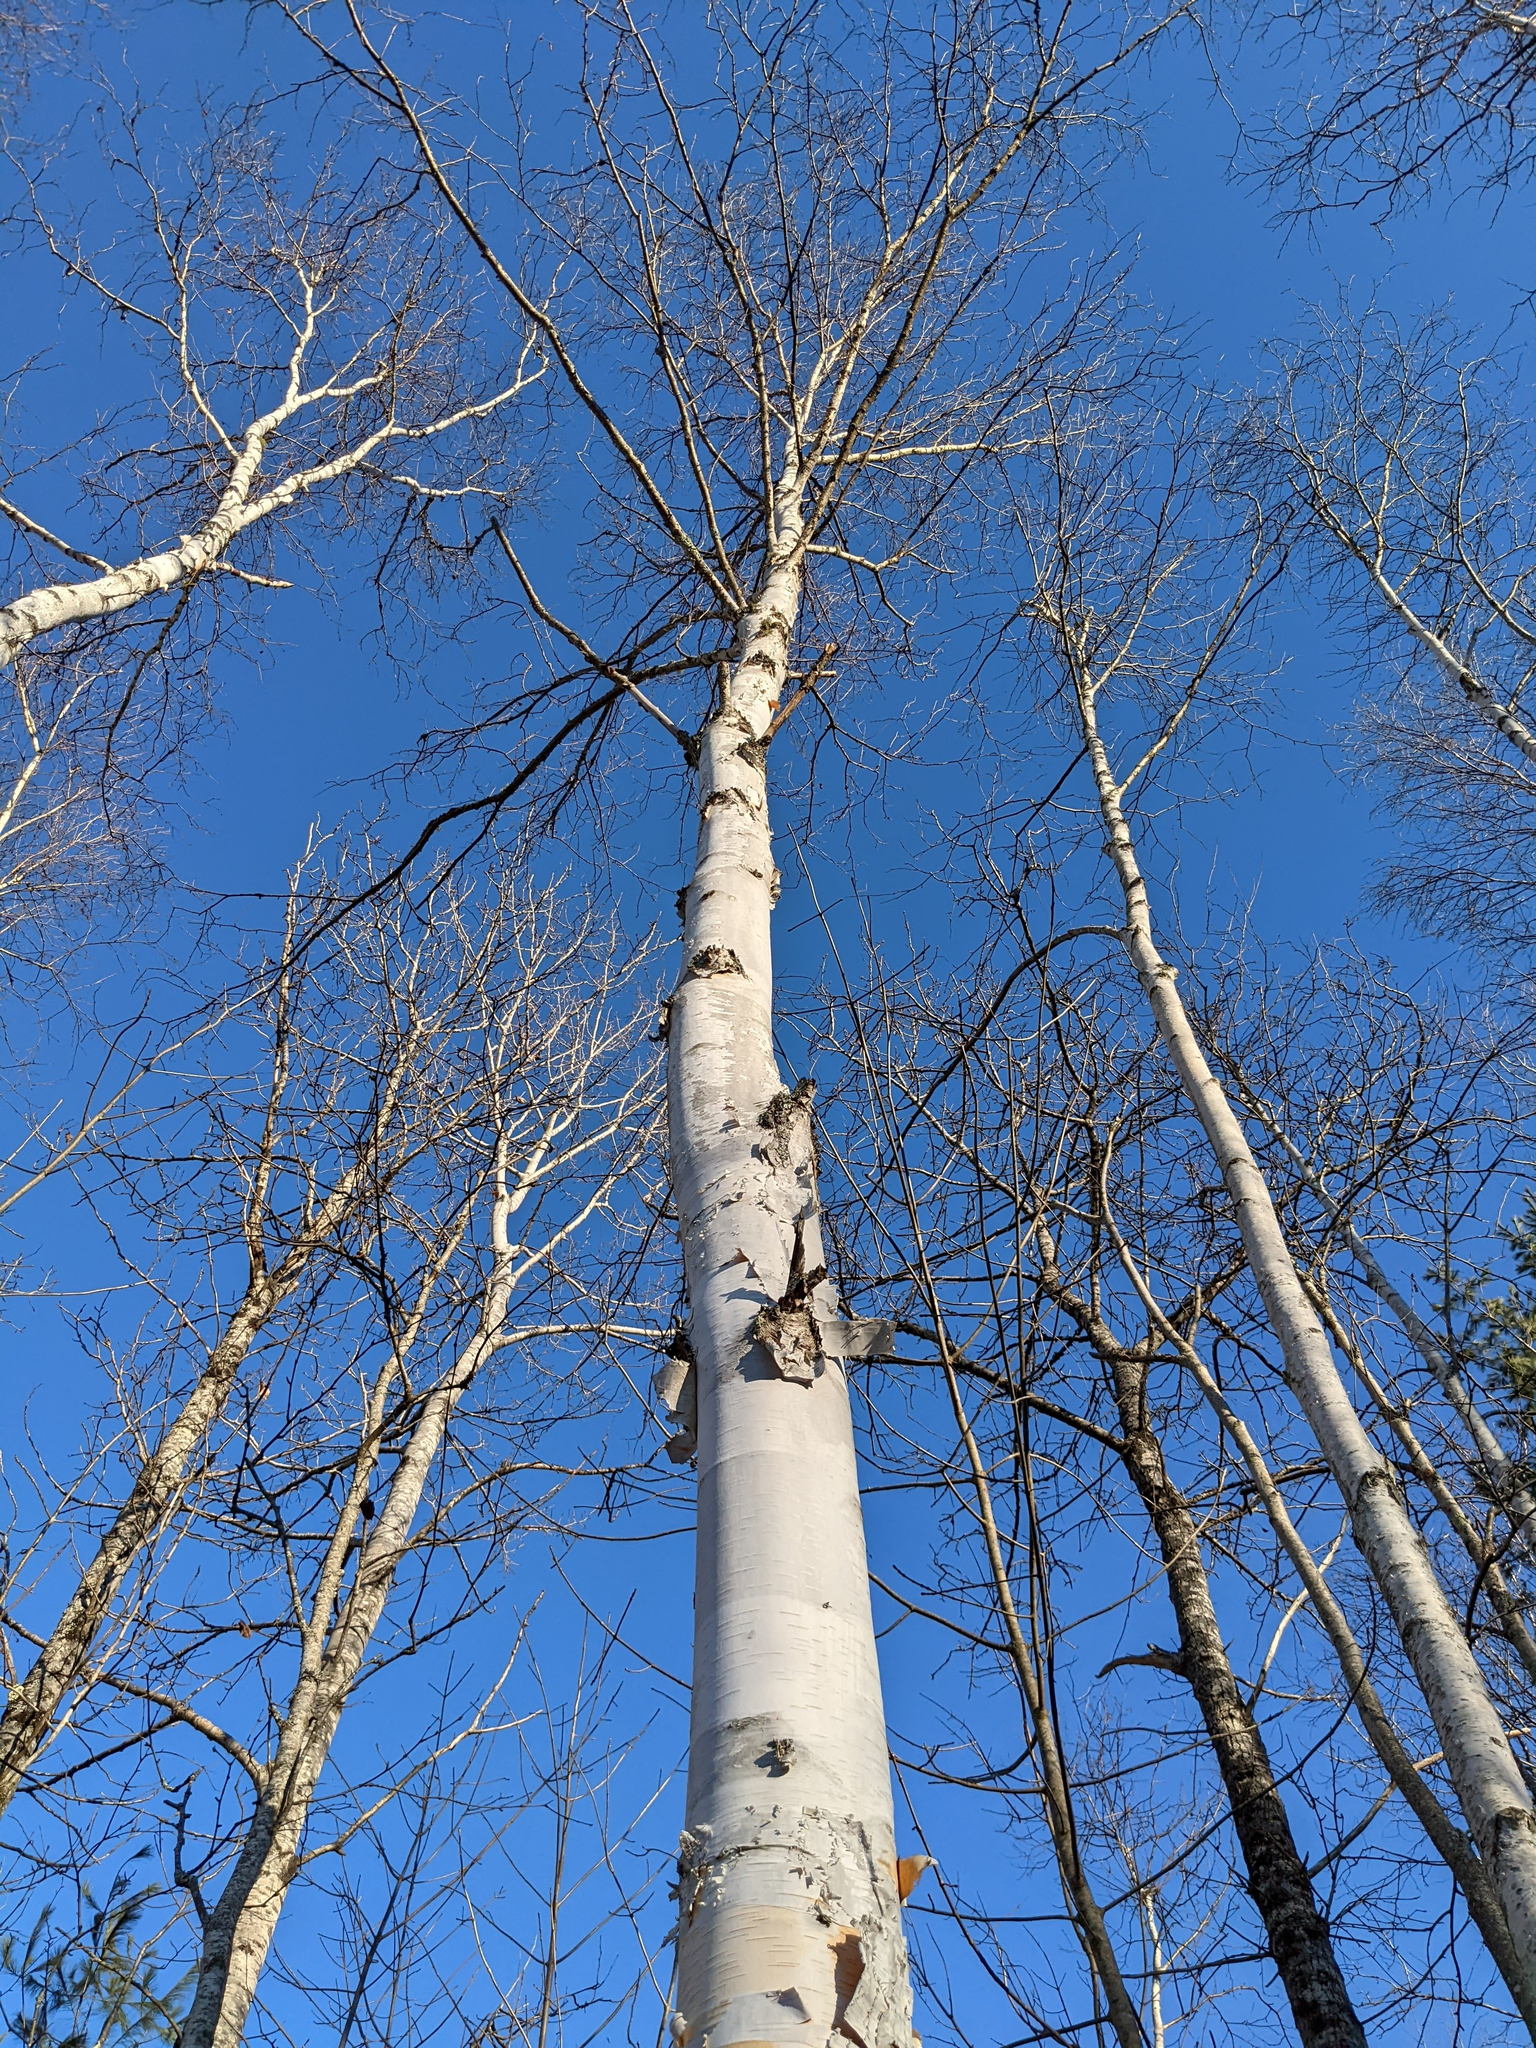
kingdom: Plantae
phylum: Tracheophyta
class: Magnoliopsida
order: Fagales
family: Betulaceae
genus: Betula
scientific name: Betula papyrifera
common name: Paper birch
